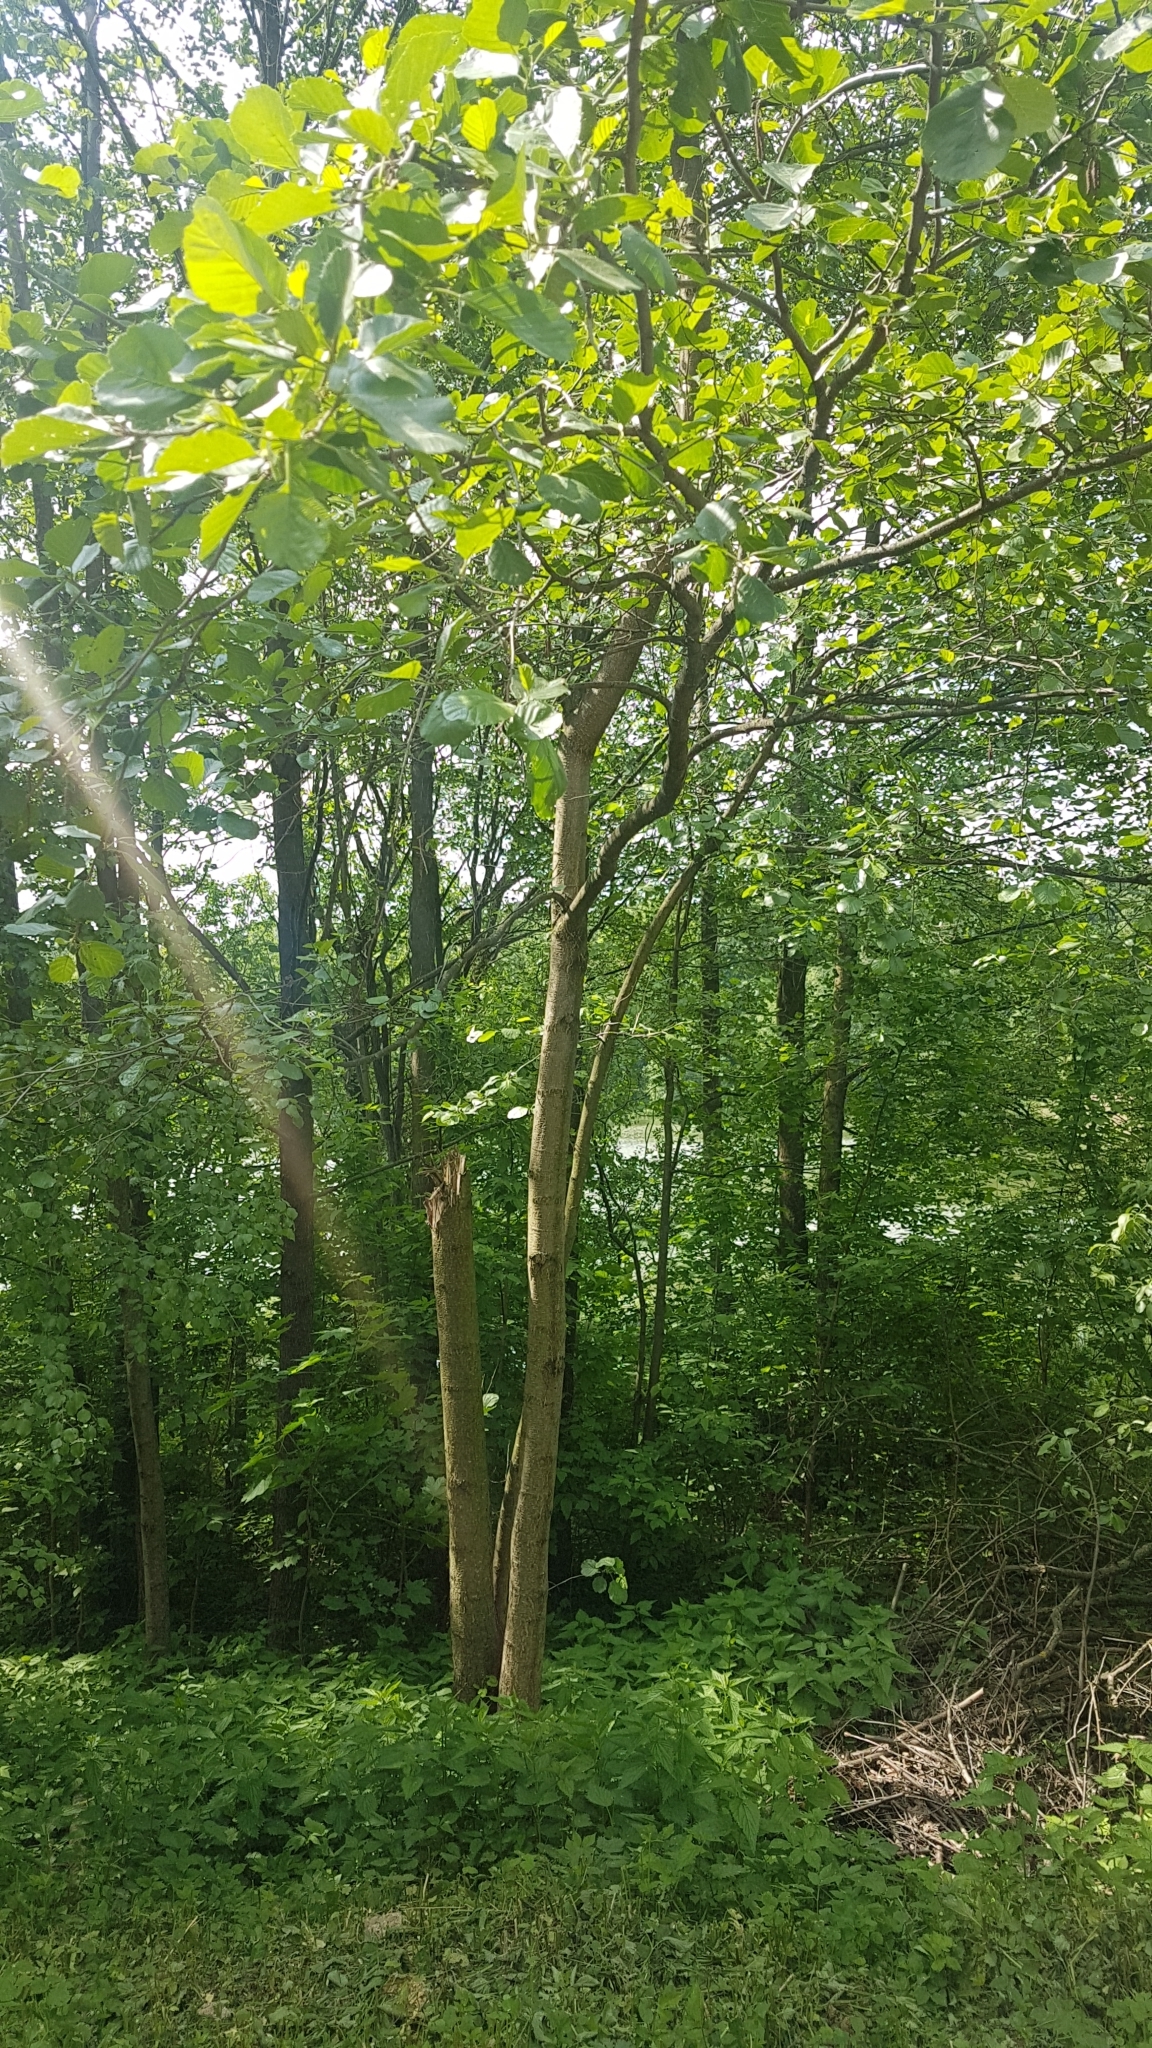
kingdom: Plantae
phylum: Tracheophyta
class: Magnoliopsida
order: Fagales
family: Betulaceae
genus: Alnus
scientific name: Alnus glutinosa
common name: Black alder
